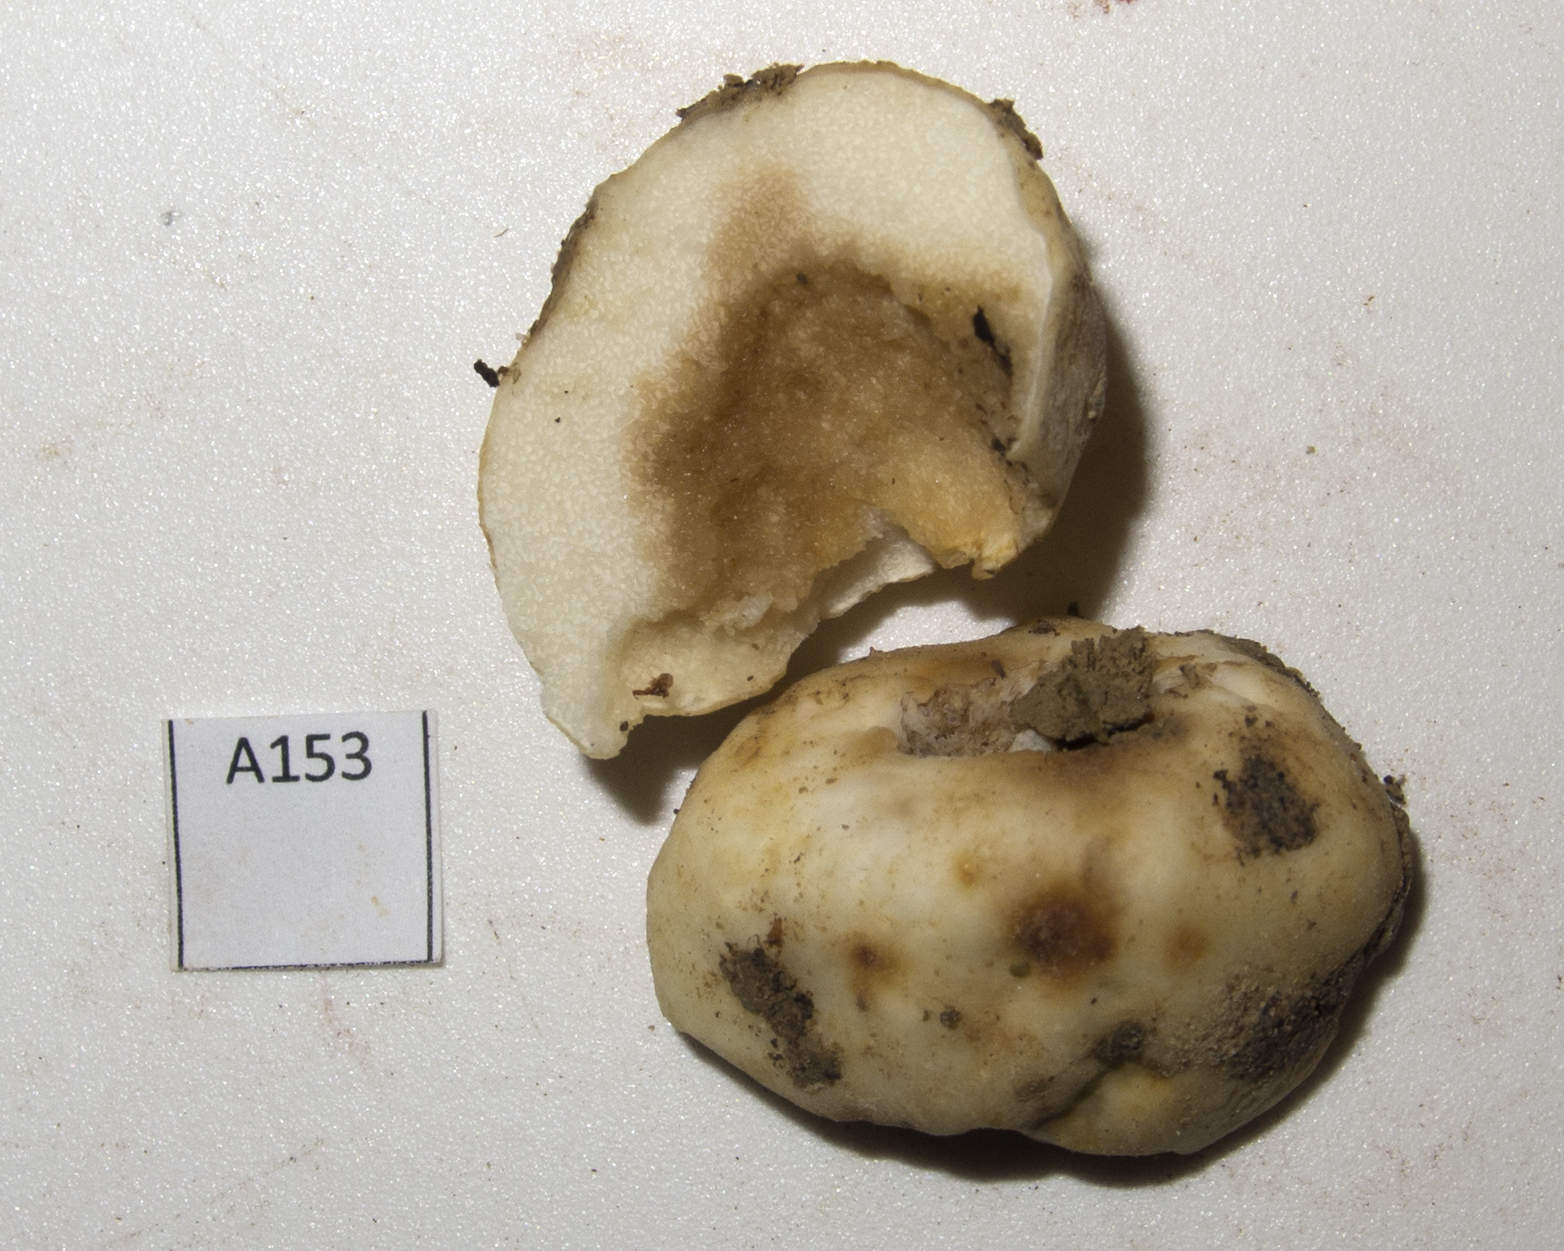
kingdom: Fungi
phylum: Basidiomycota
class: Agaricomycetes
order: Russulales
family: Russulaceae
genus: Russula
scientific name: Russula parvisaxoides
